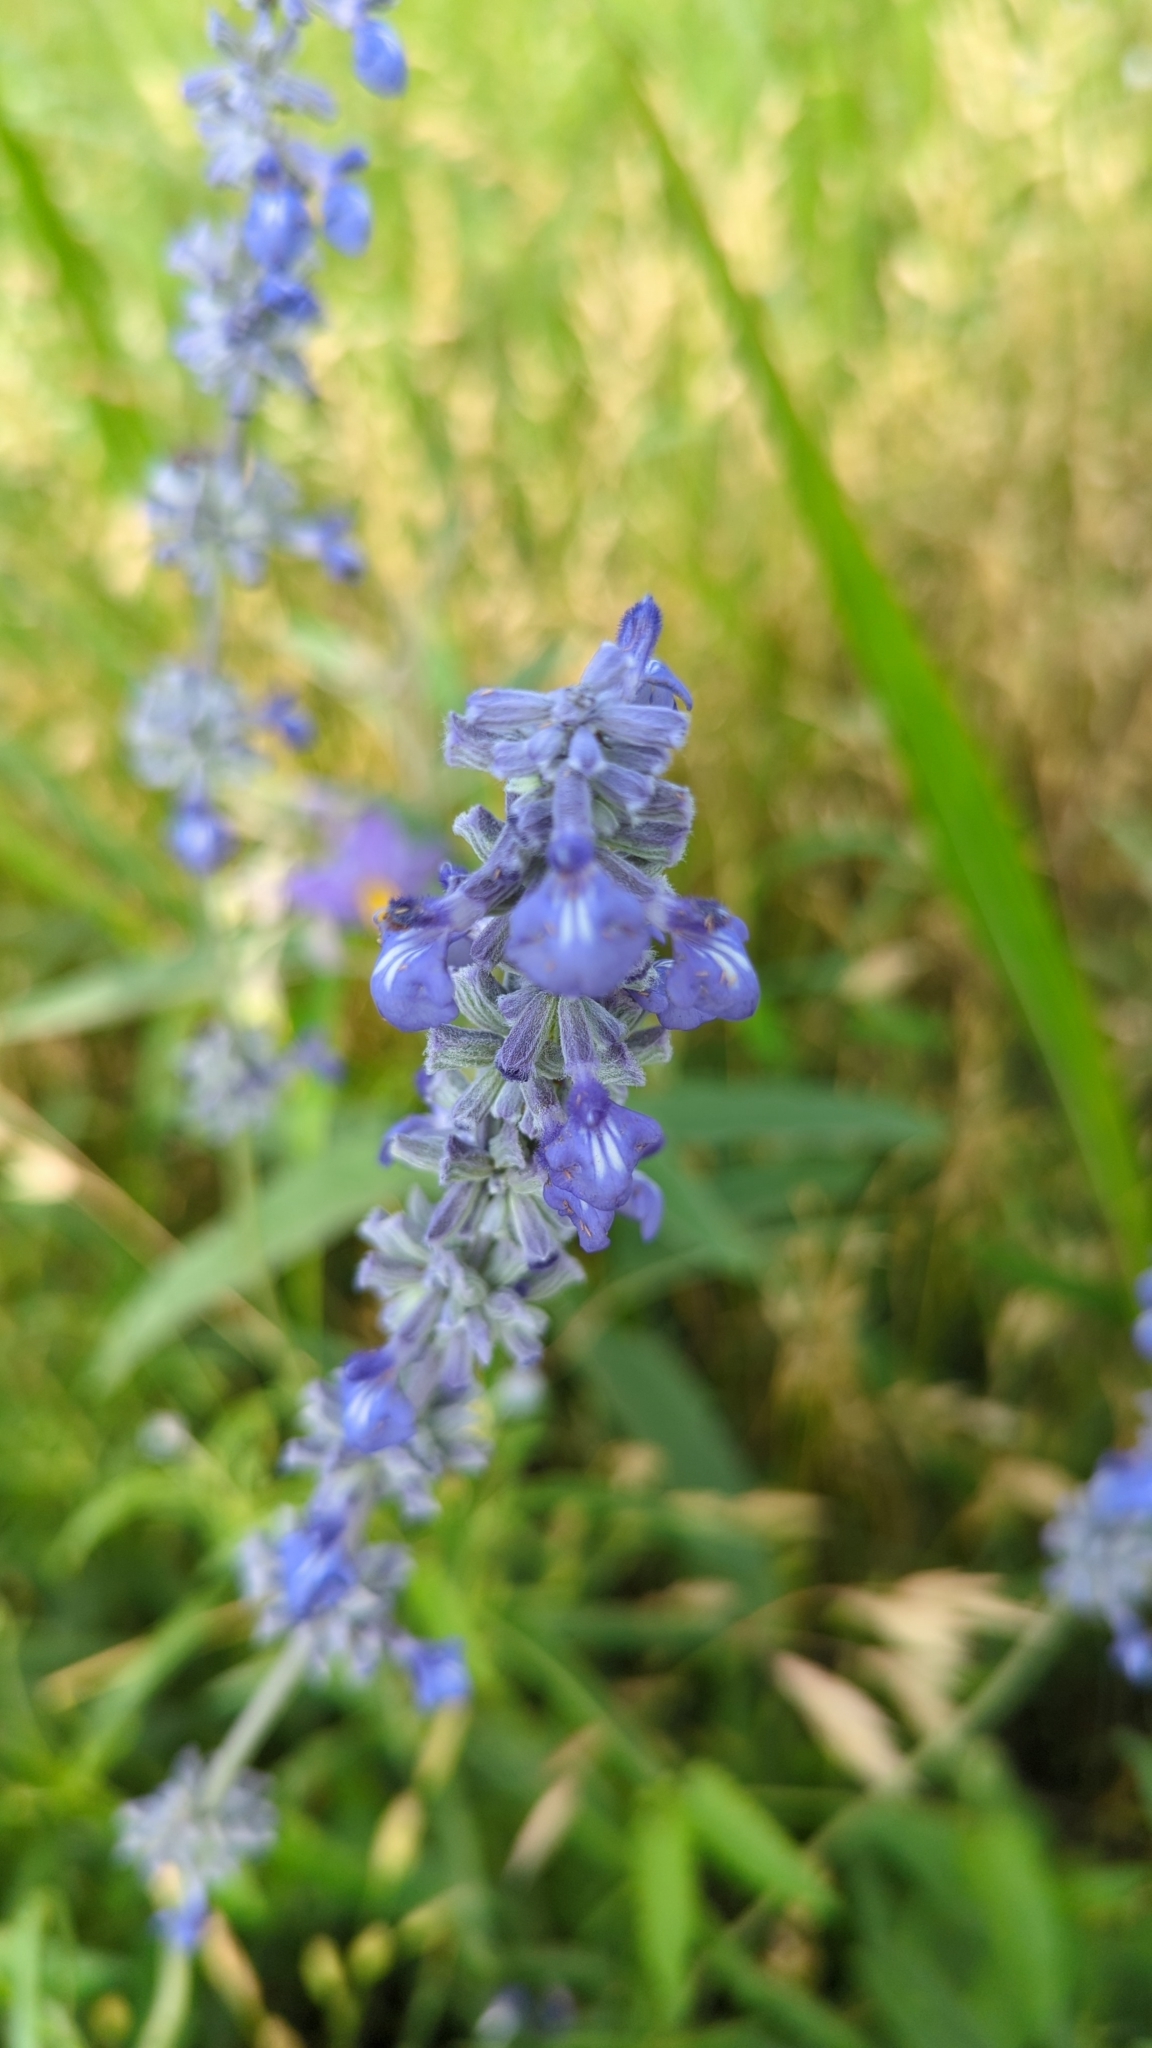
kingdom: Plantae
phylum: Tracheophyta
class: Magnoliopsida
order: Lamiales
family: Lamiaceae
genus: Salvia
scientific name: Salvia farinacea
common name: Mealy sage
